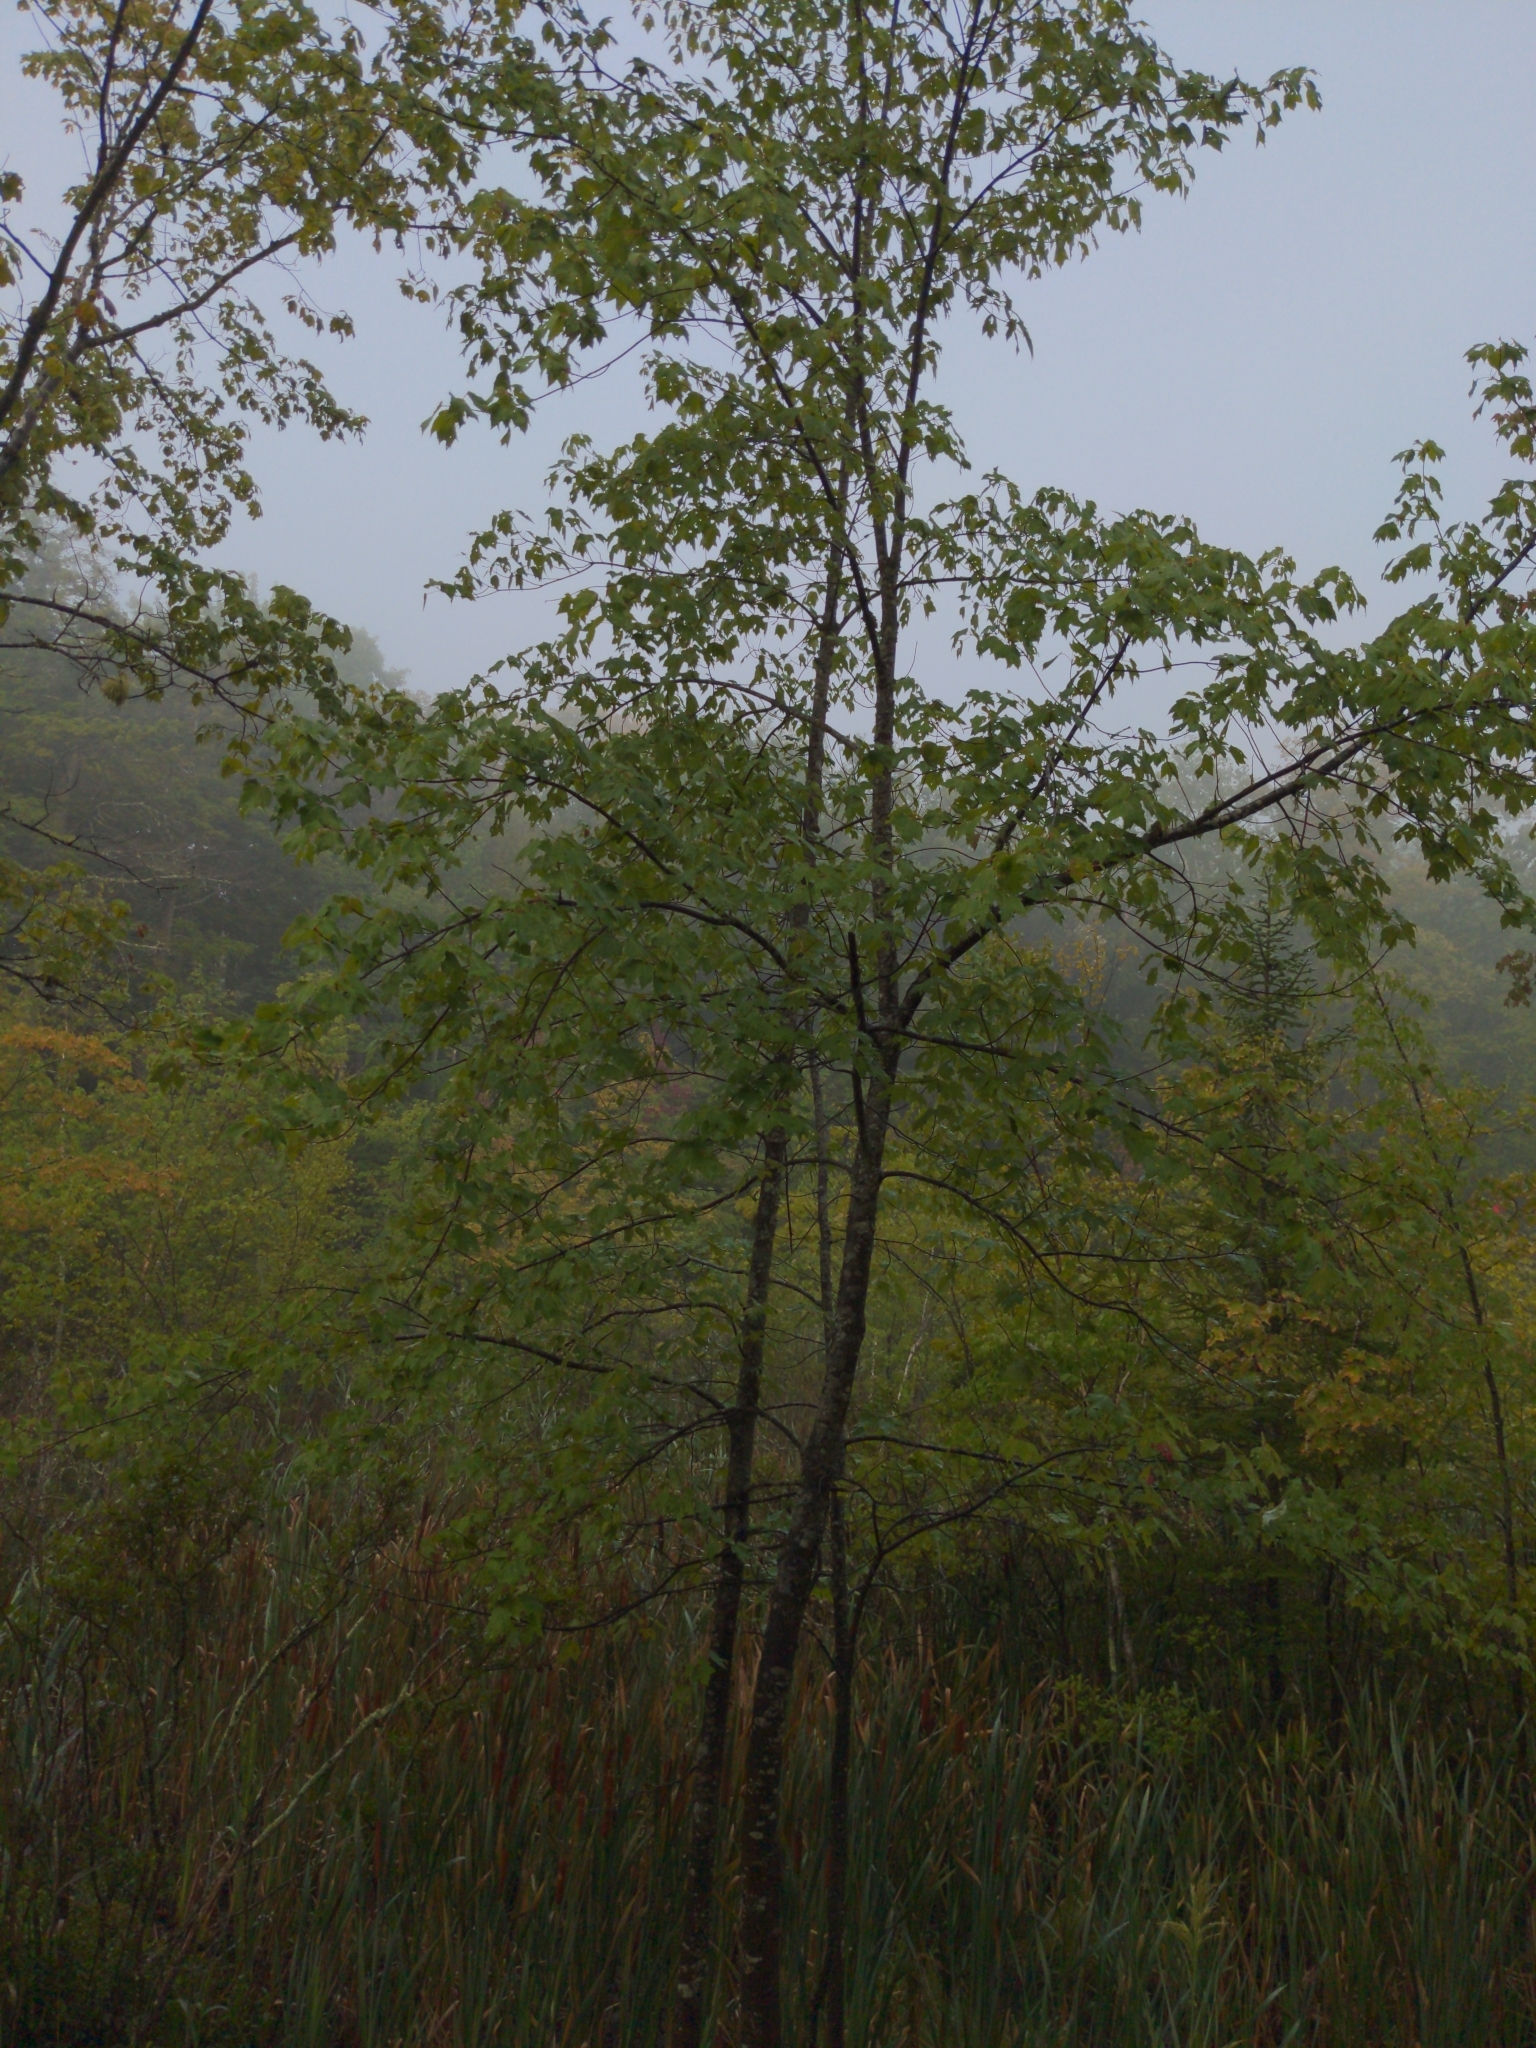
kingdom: Plantae
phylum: Tracheophyta
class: Magnoliopsida
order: Sapindales
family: Sapindaceae
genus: Acer
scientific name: Acer rubrum
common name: Red maple
